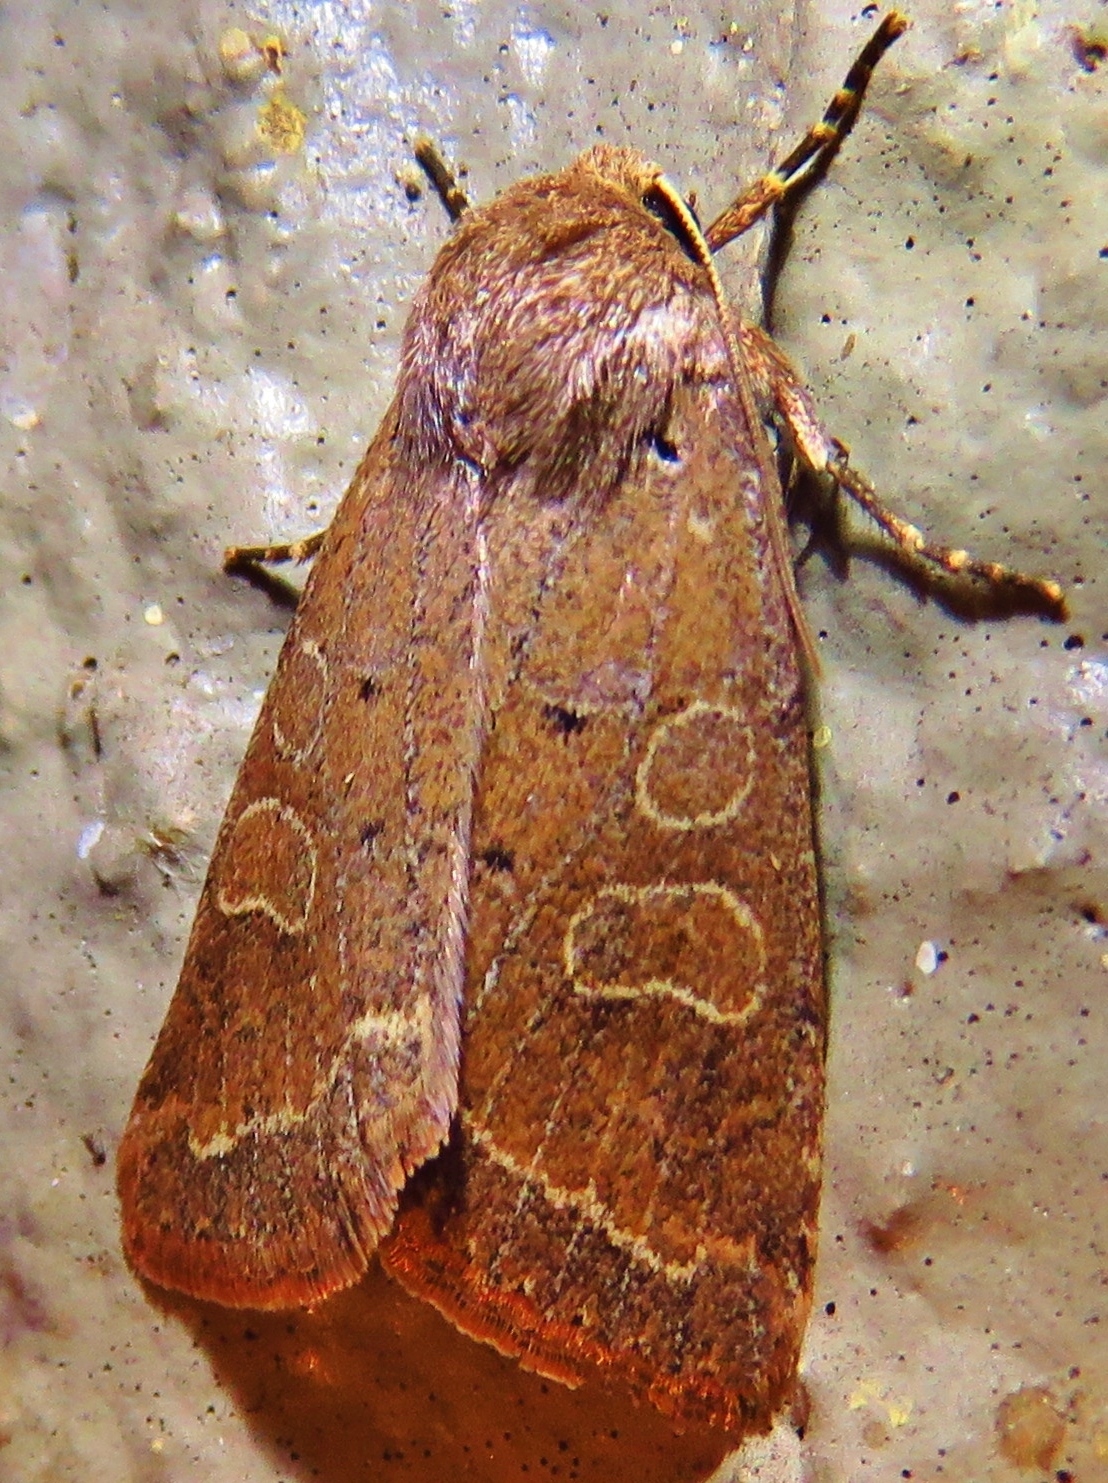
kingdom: Animalia
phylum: Arthropoda
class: Insecta
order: Lepidoptera
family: Noctuidae
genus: Kocakina
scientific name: Kocakina fidelis
